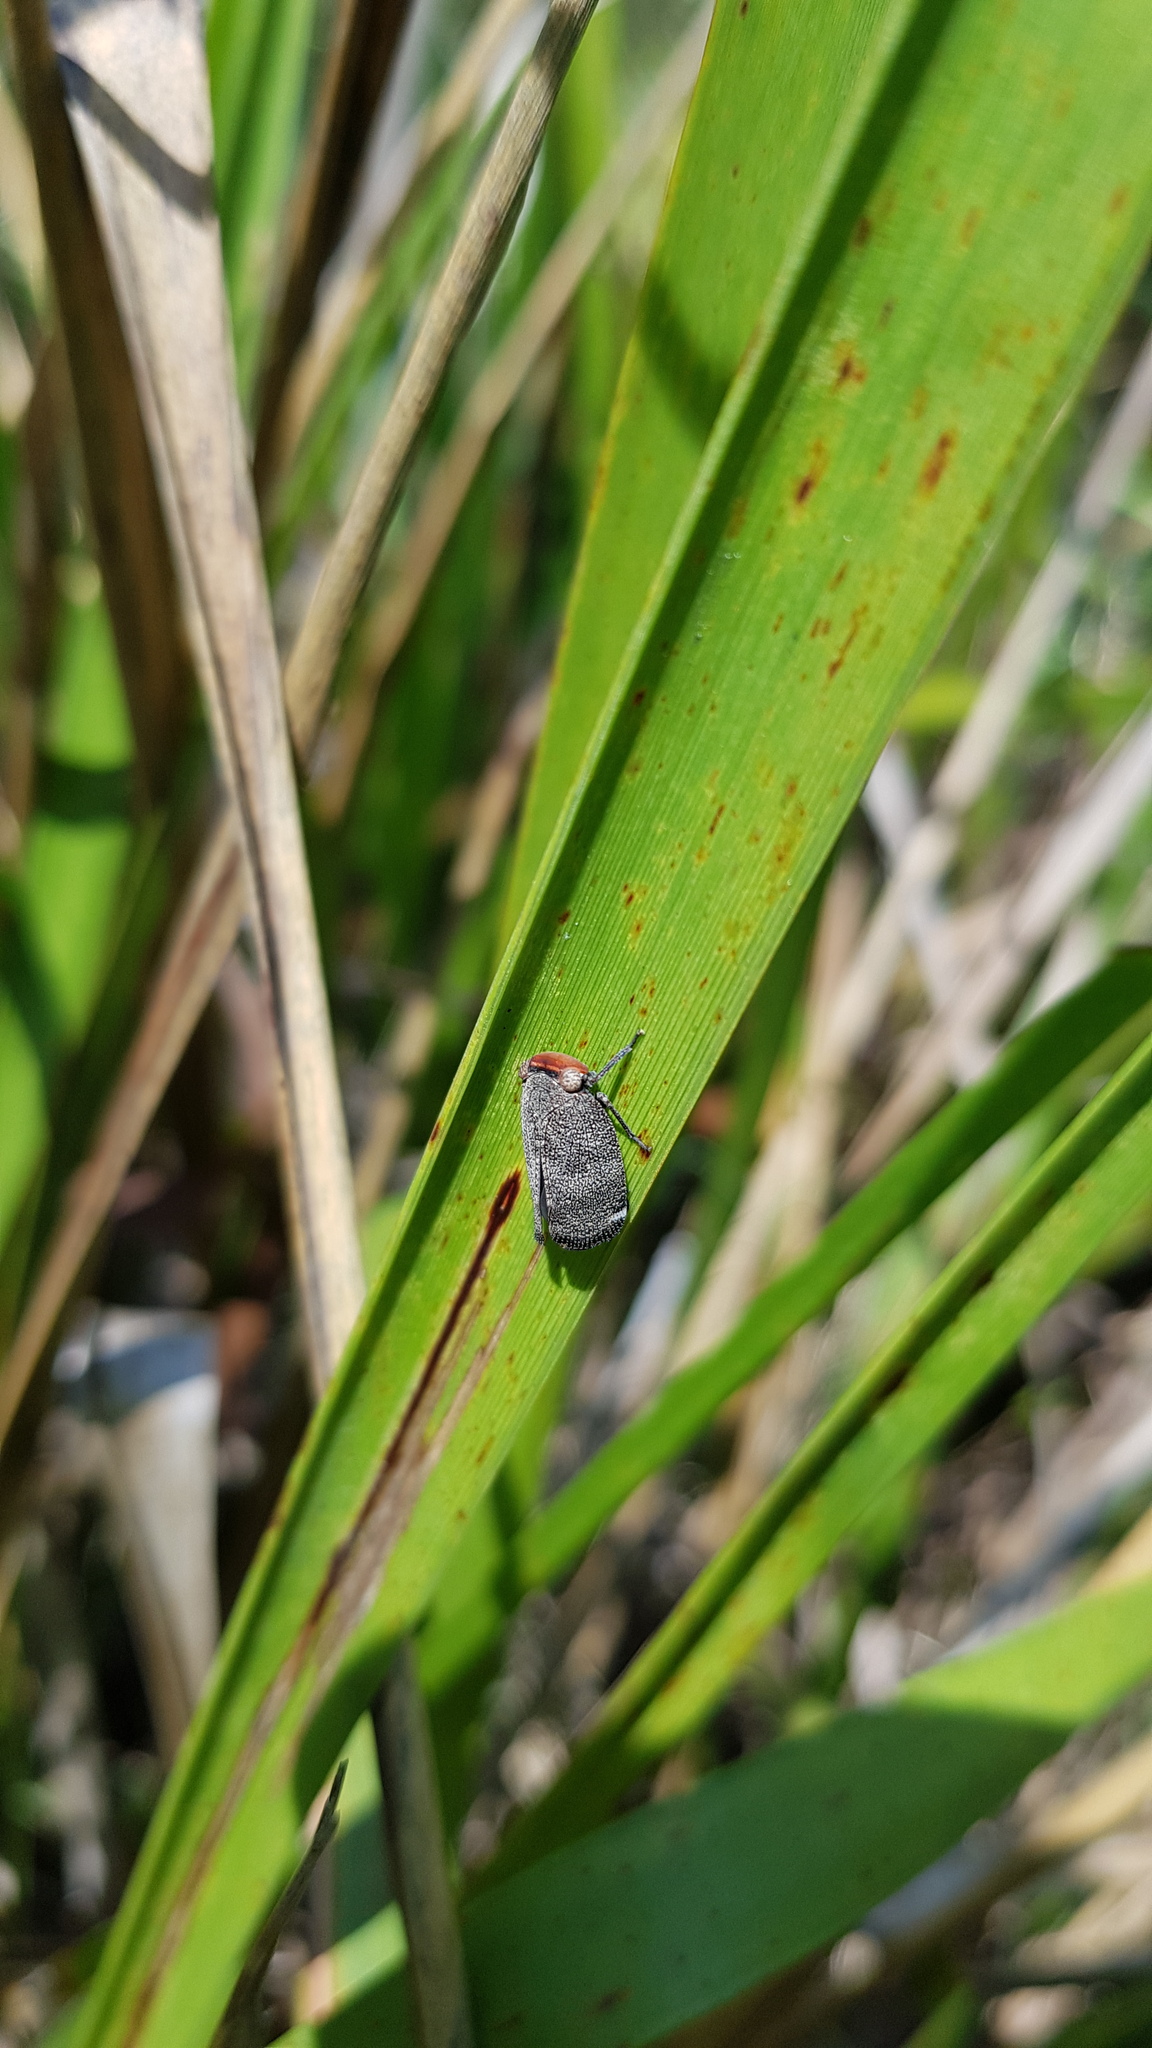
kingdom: Animalia
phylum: Arthropoda
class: Insecta
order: Hemiptera
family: Eurybrachidae
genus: Hackerobrachys
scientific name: Hackerobrachys viridiventris
